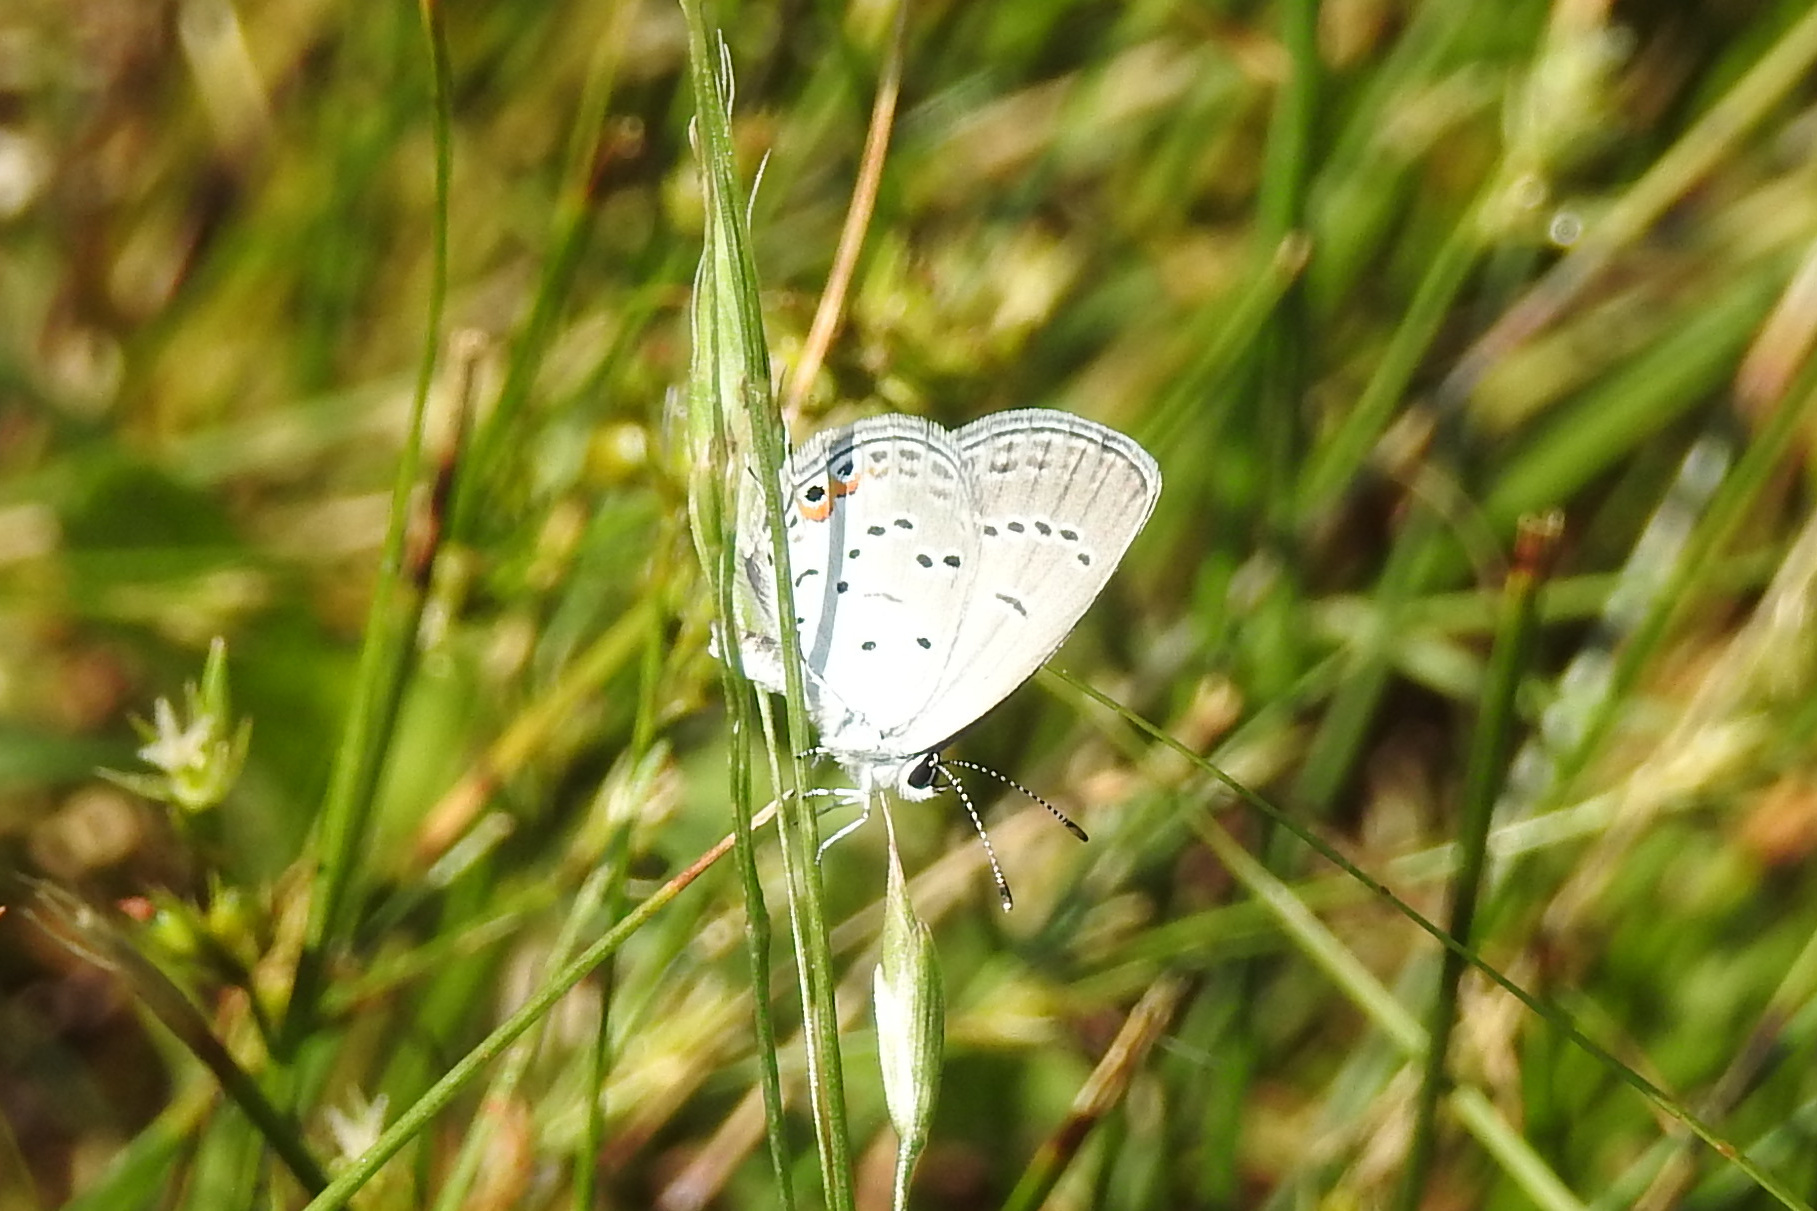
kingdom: Animalia
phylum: Arthropoda
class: Insecta
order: Lepidoptera
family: Lycaenidae
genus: Elkalyce
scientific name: Elkalyce comyntas
